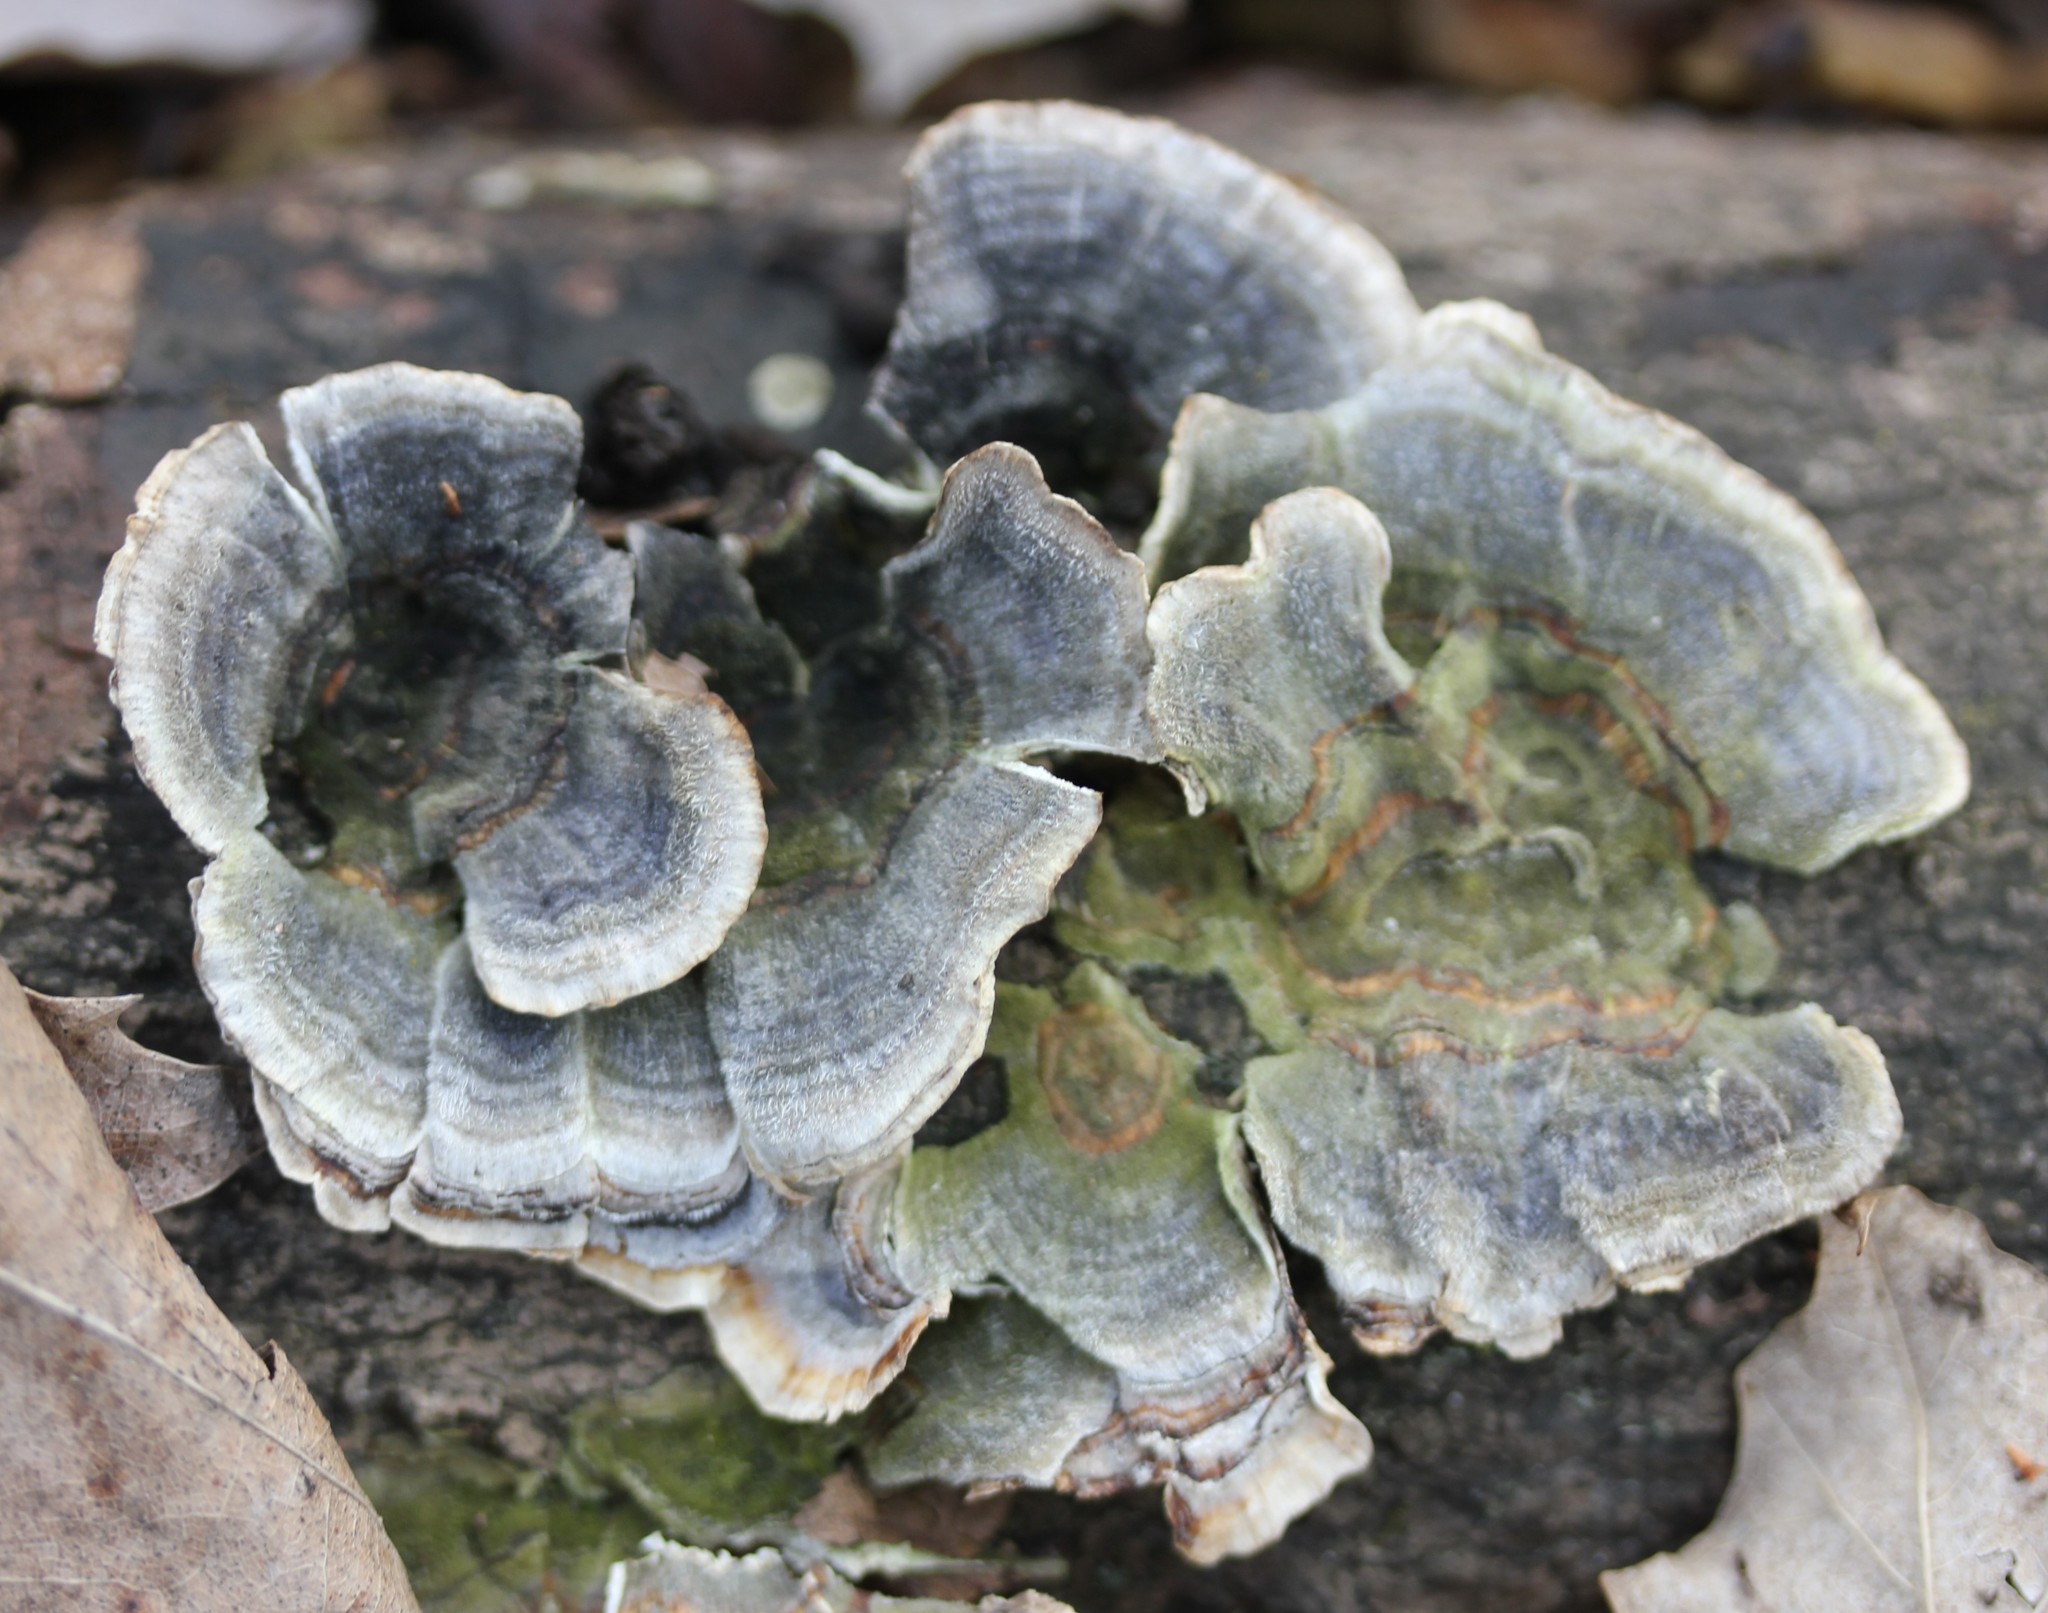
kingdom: Fungi
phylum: Basidiomycota
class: Agaricomycetes
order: Polyporales
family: Polyporaceae
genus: Trametes
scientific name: Trametes versicolor
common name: Turkeytail
